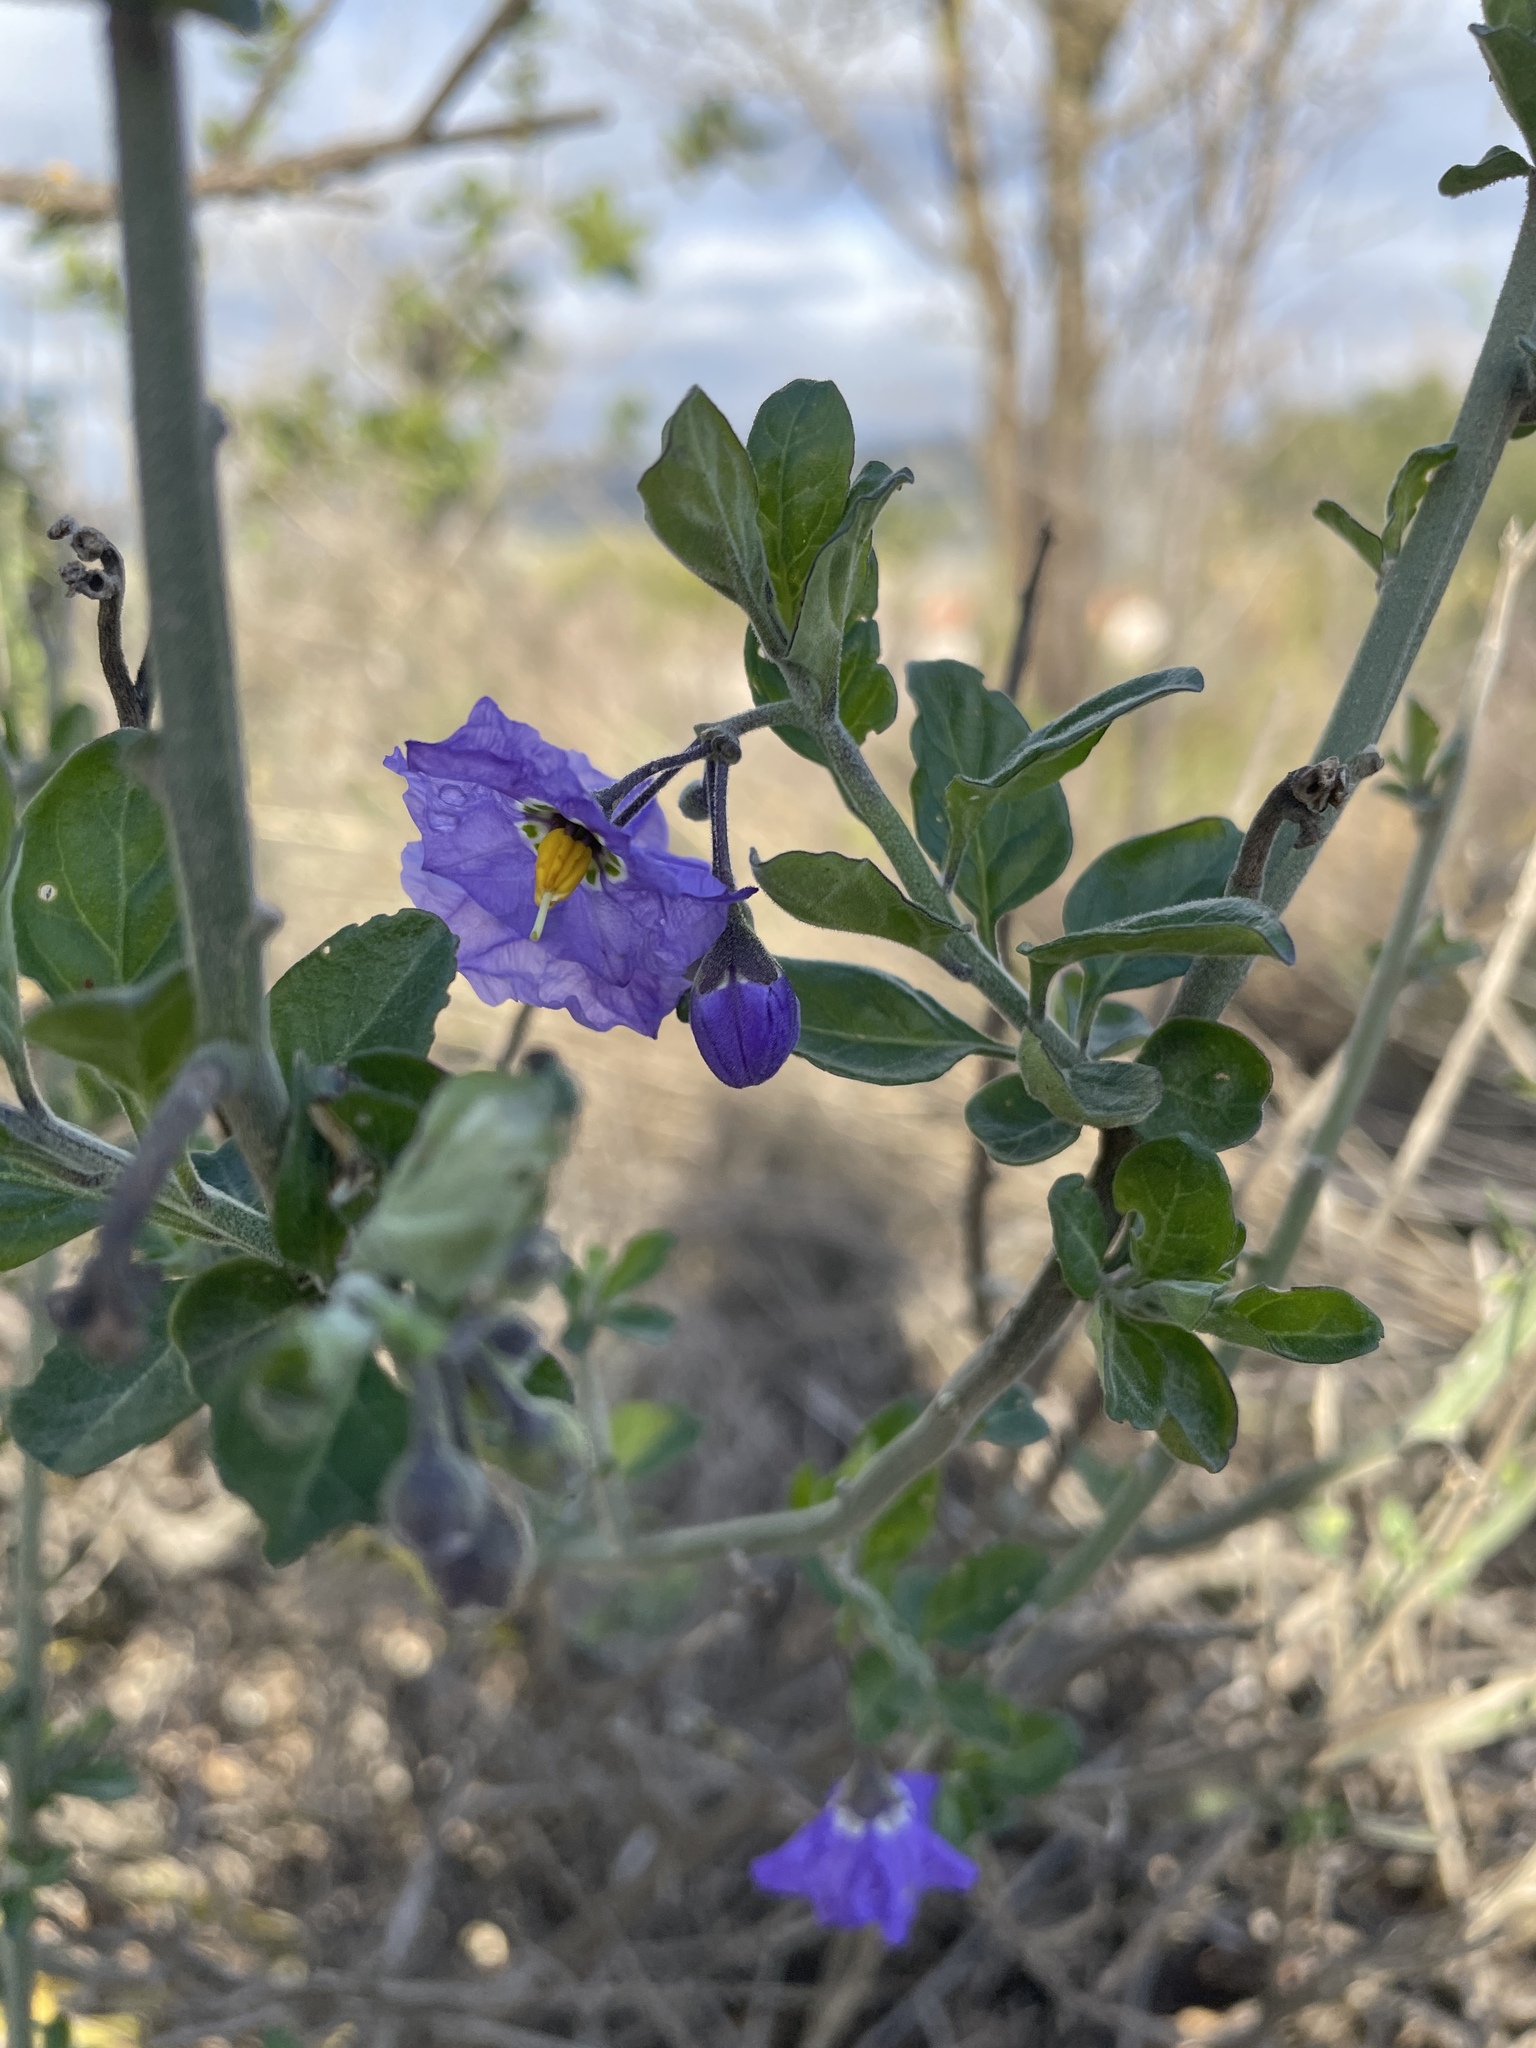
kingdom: Plantae
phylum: Tracheophyta
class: Magnoliopsida
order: Solanales
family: Solanaceae
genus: Solanum
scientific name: Solanum umbelliferum
